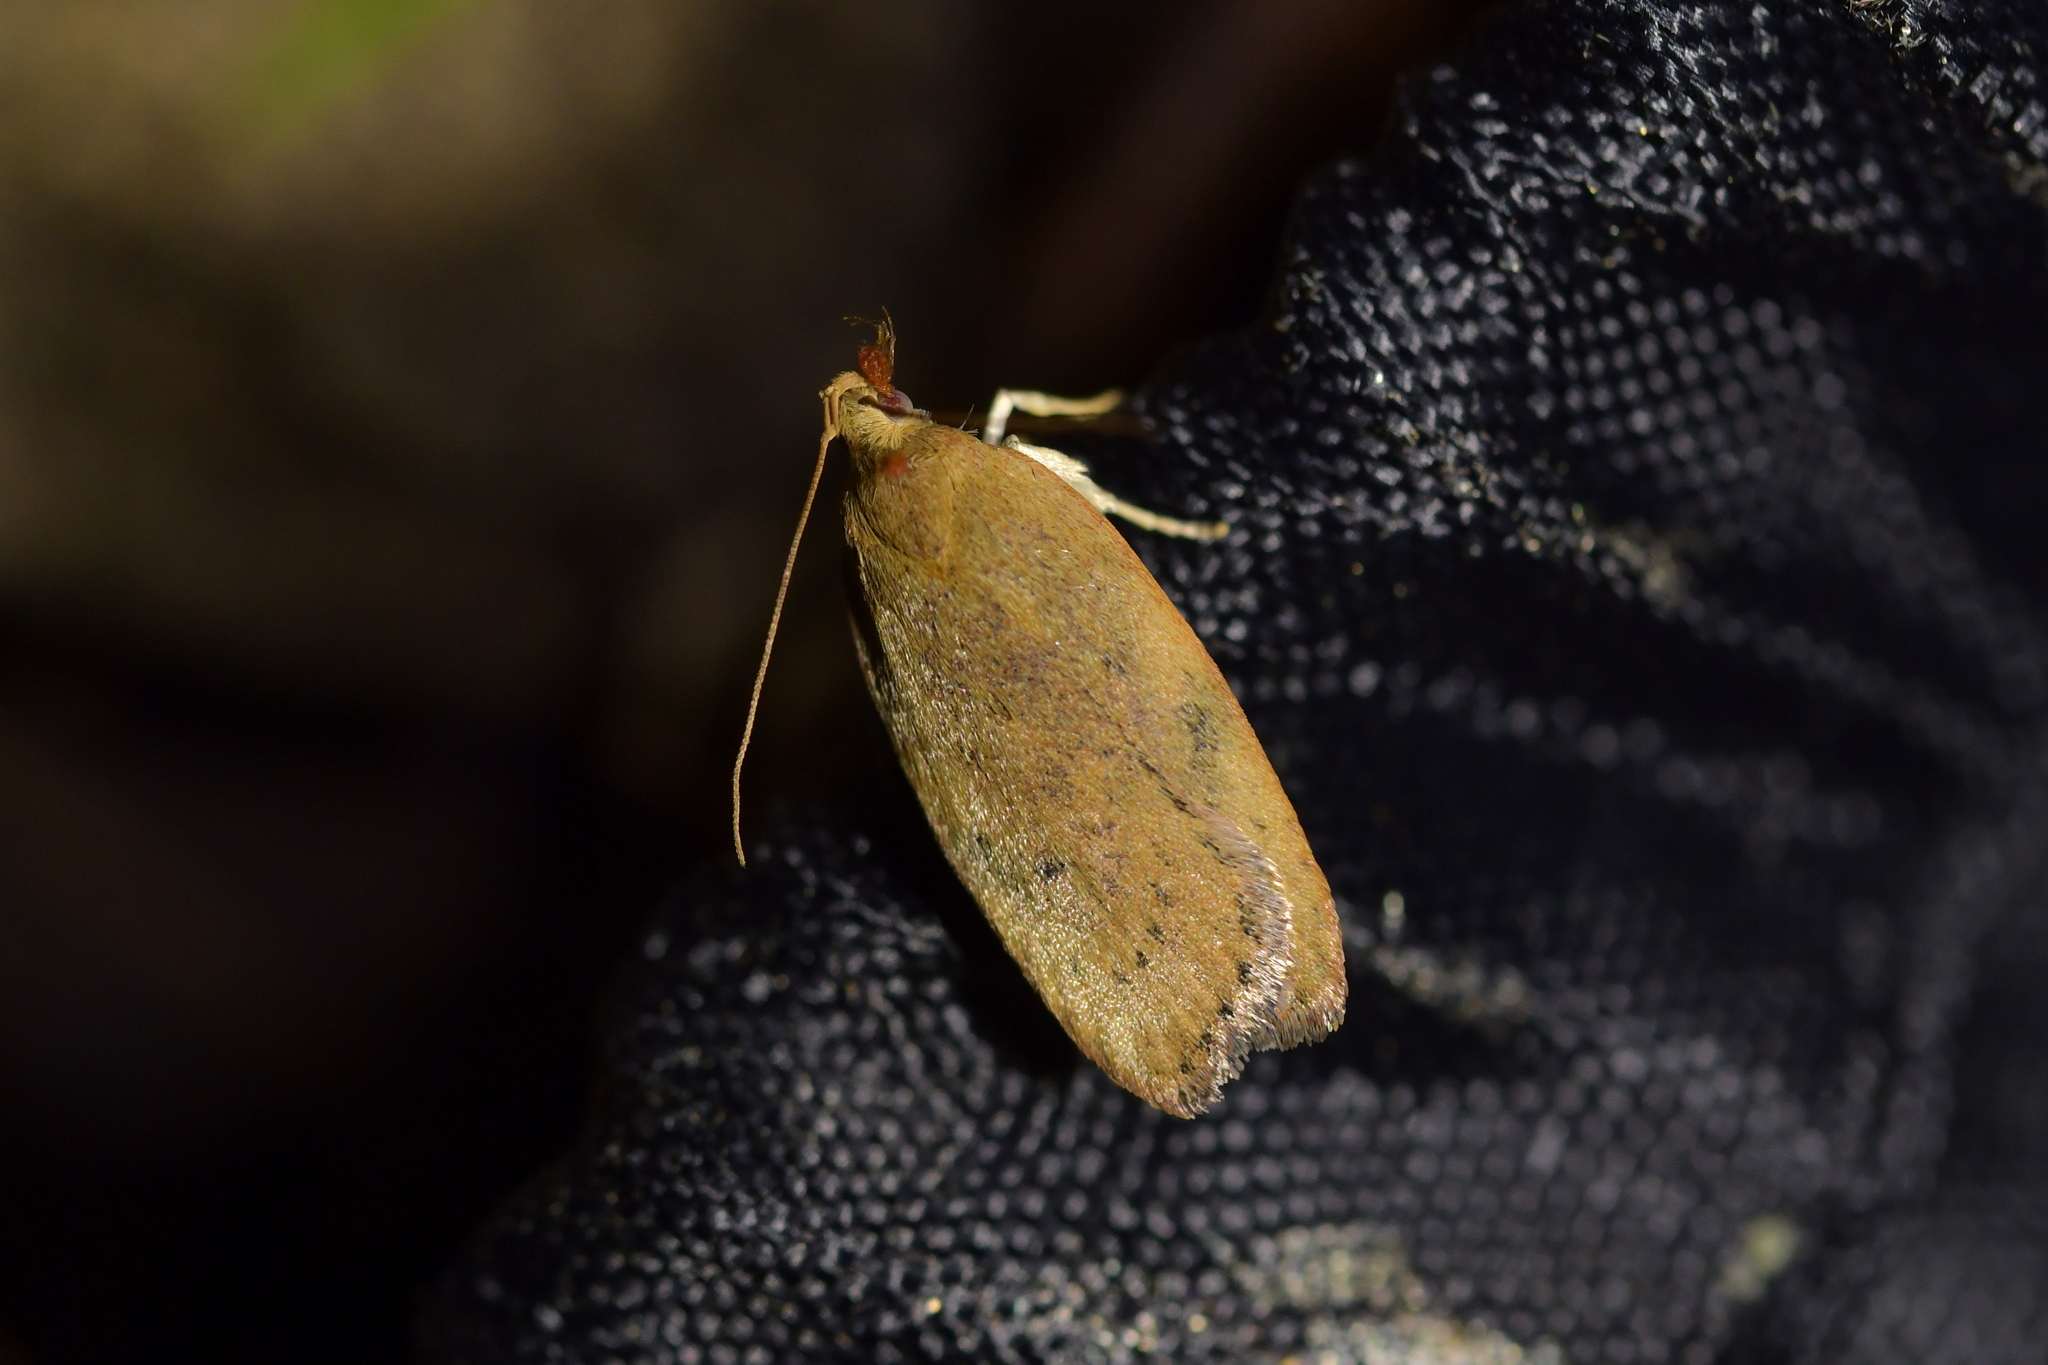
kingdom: Animalia
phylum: Arthropoda
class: Insecta
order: Lepidoptera
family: Depressariidae
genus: Phaeosaces
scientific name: Phaeosaces coarctatella
